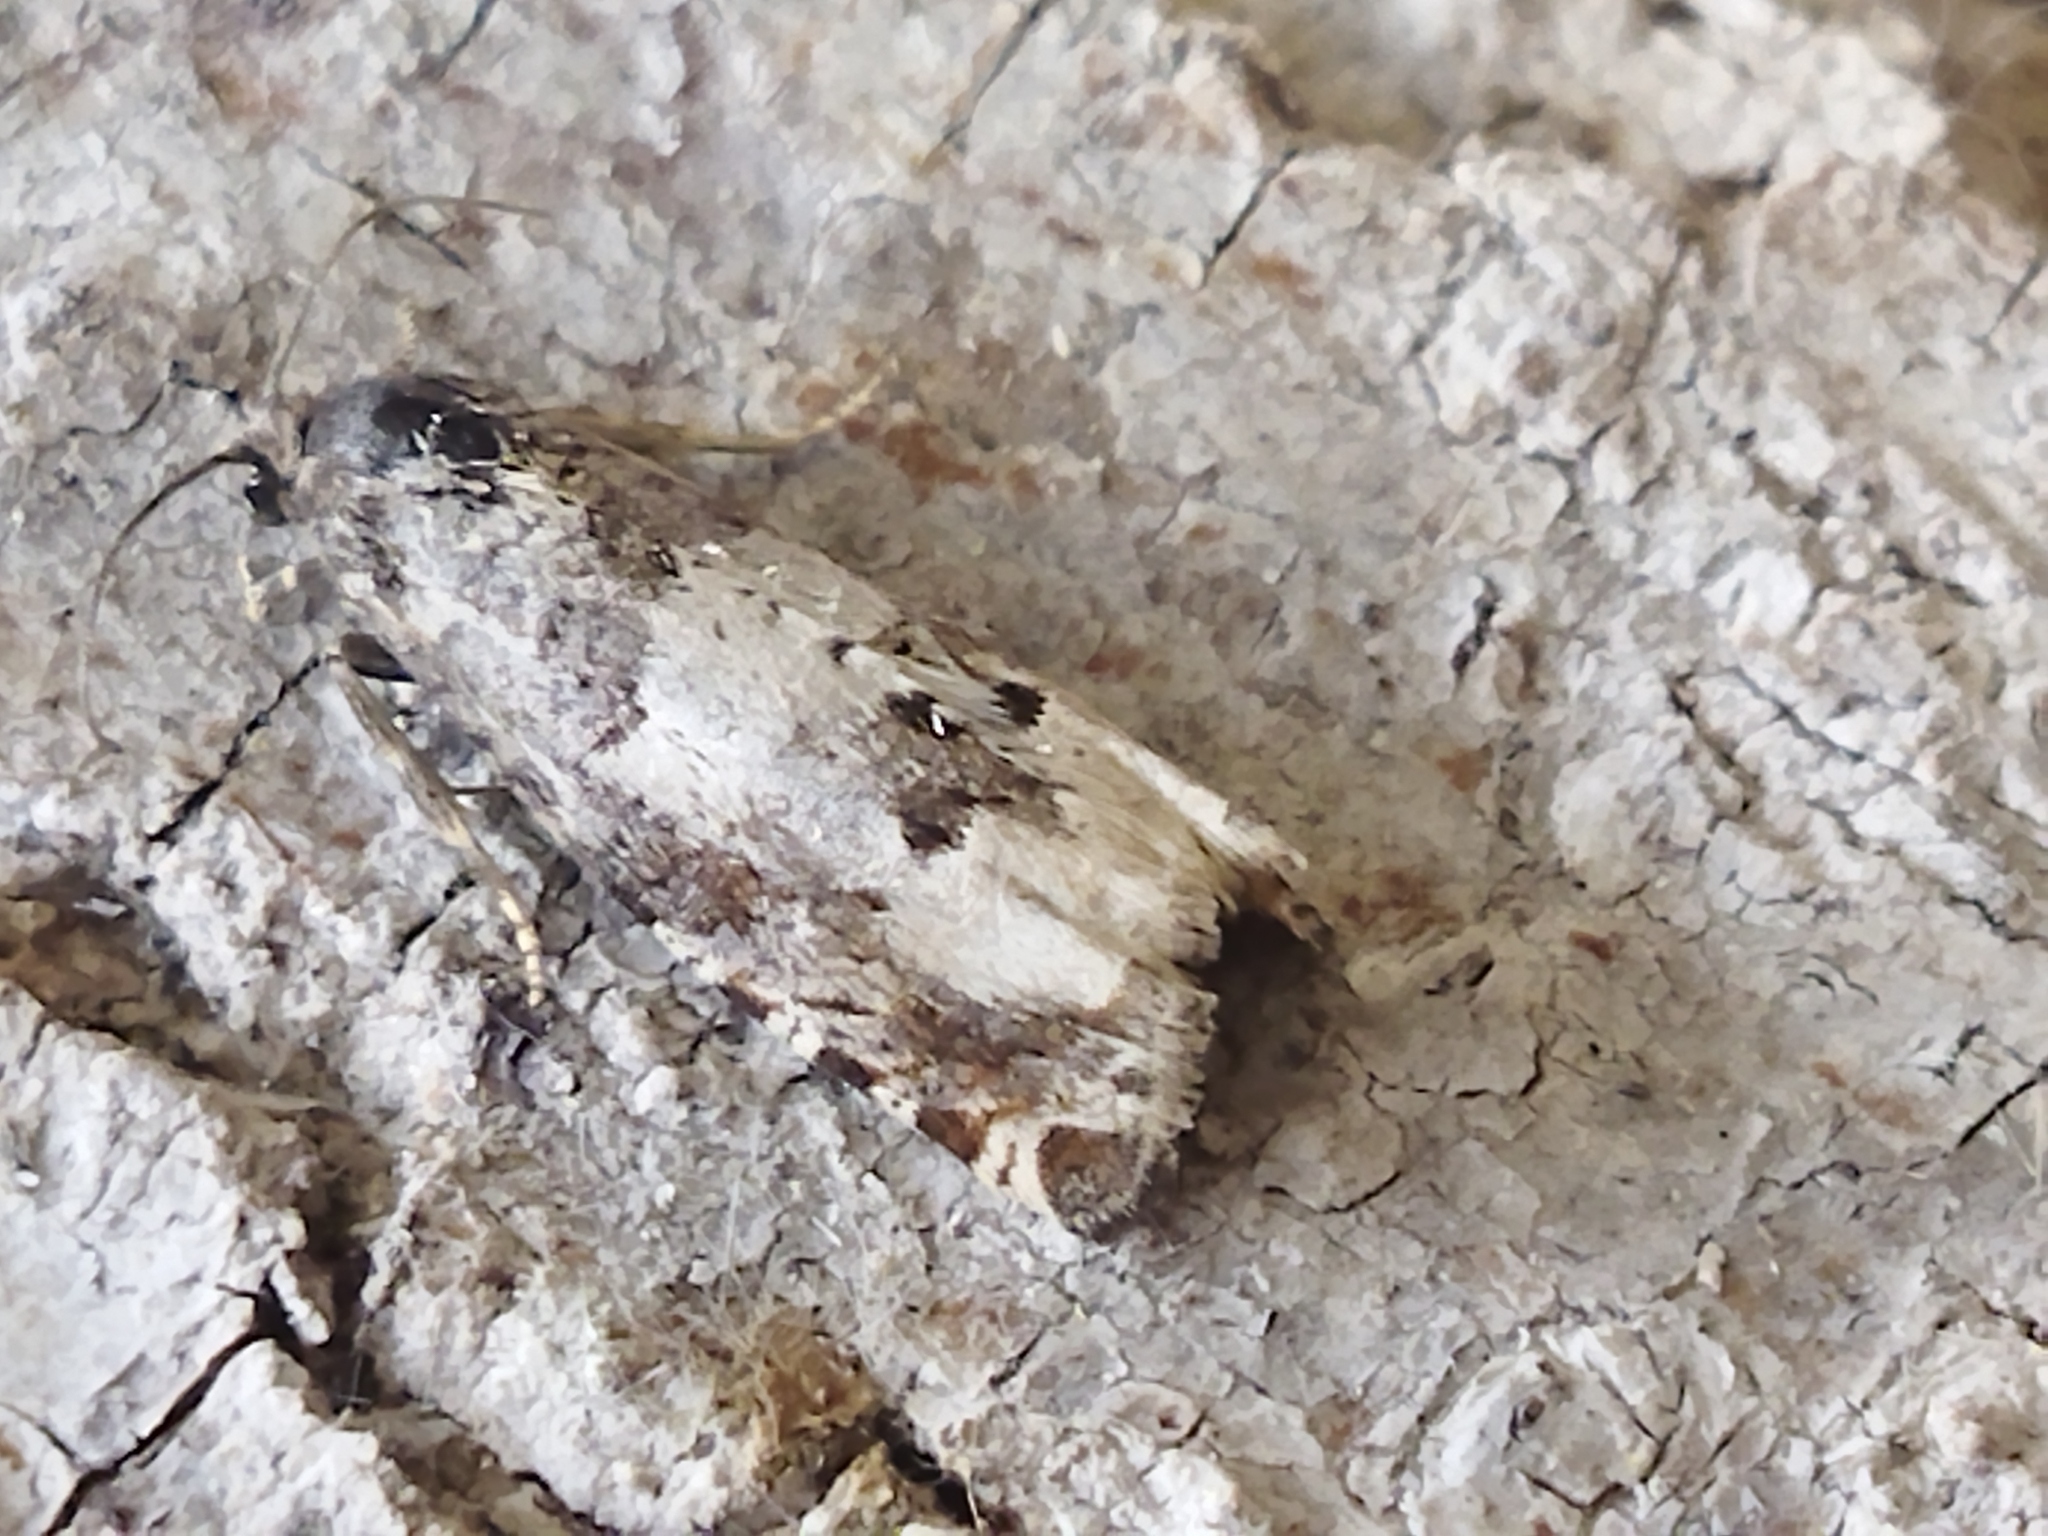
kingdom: Animalia
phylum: Arthropoda
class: Insecta
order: Lepidoptera
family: Tortricidae
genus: Epiblema
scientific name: Epiblema scutulana
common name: Thistle bell
